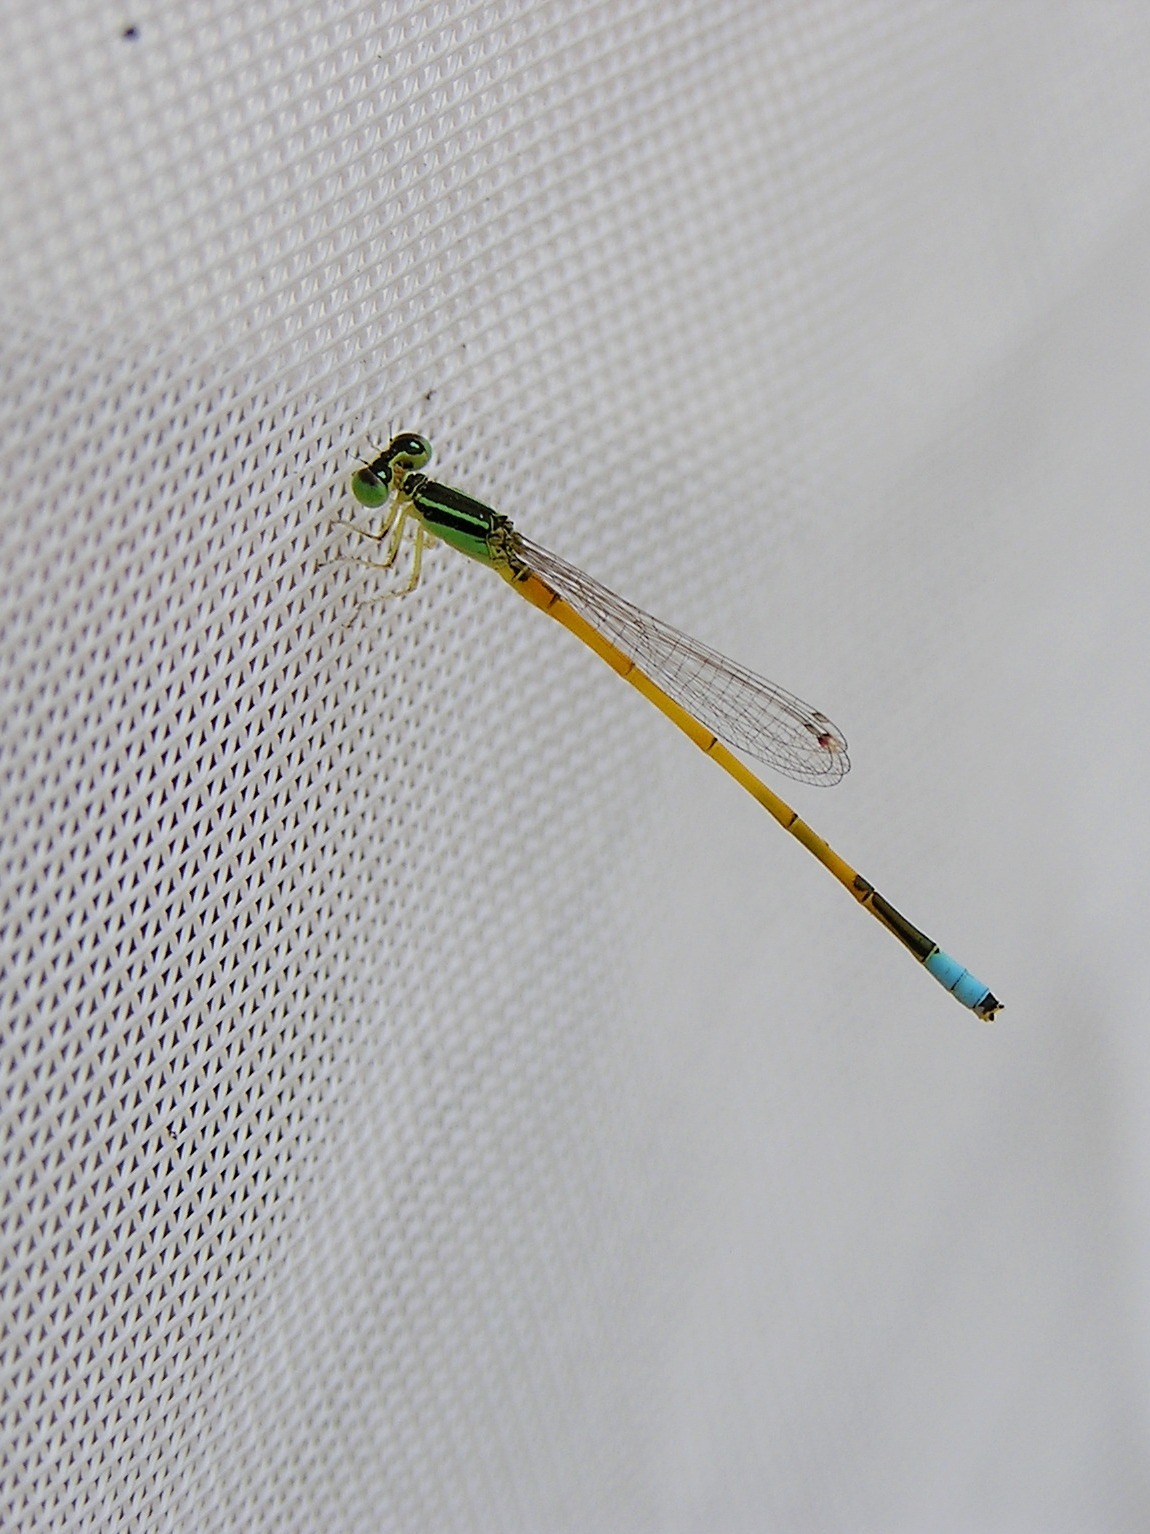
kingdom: Animalia
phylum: Arthropoda
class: Insecta
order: Odonata
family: Coenagrionidae
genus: Ischnura
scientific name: Ischnura rubilio
